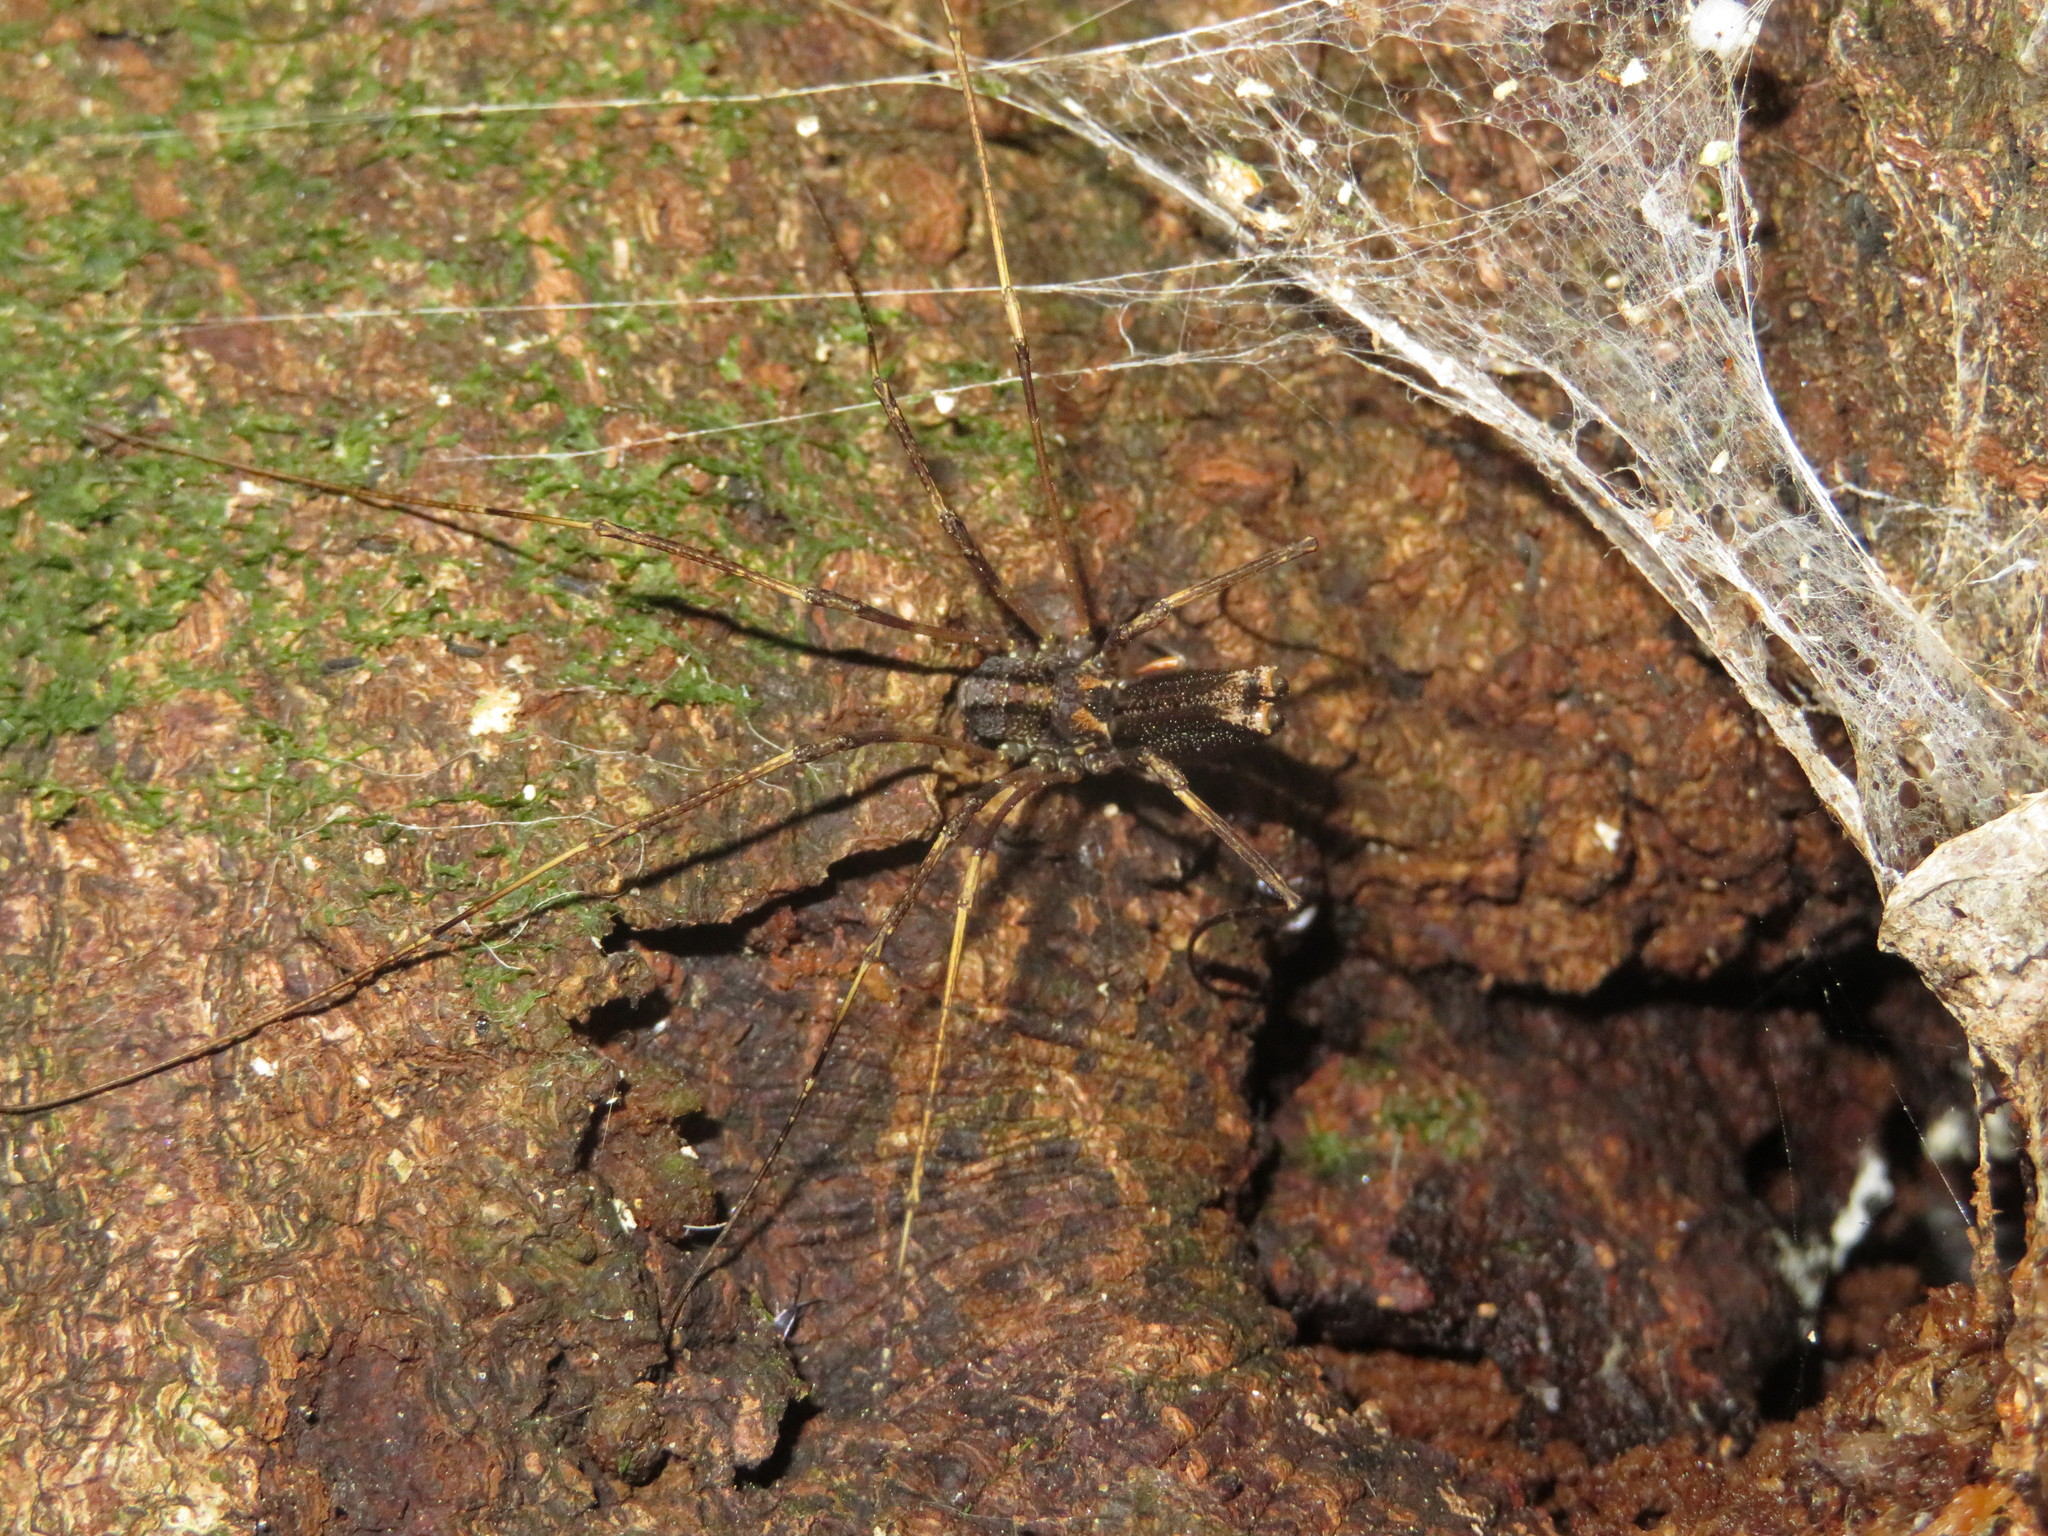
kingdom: Animalia
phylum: Arthropoda
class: Arachnida
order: Opiliones
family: Neopilionidae
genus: Forsteropsalis
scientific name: Forsteropsalis inconstans
